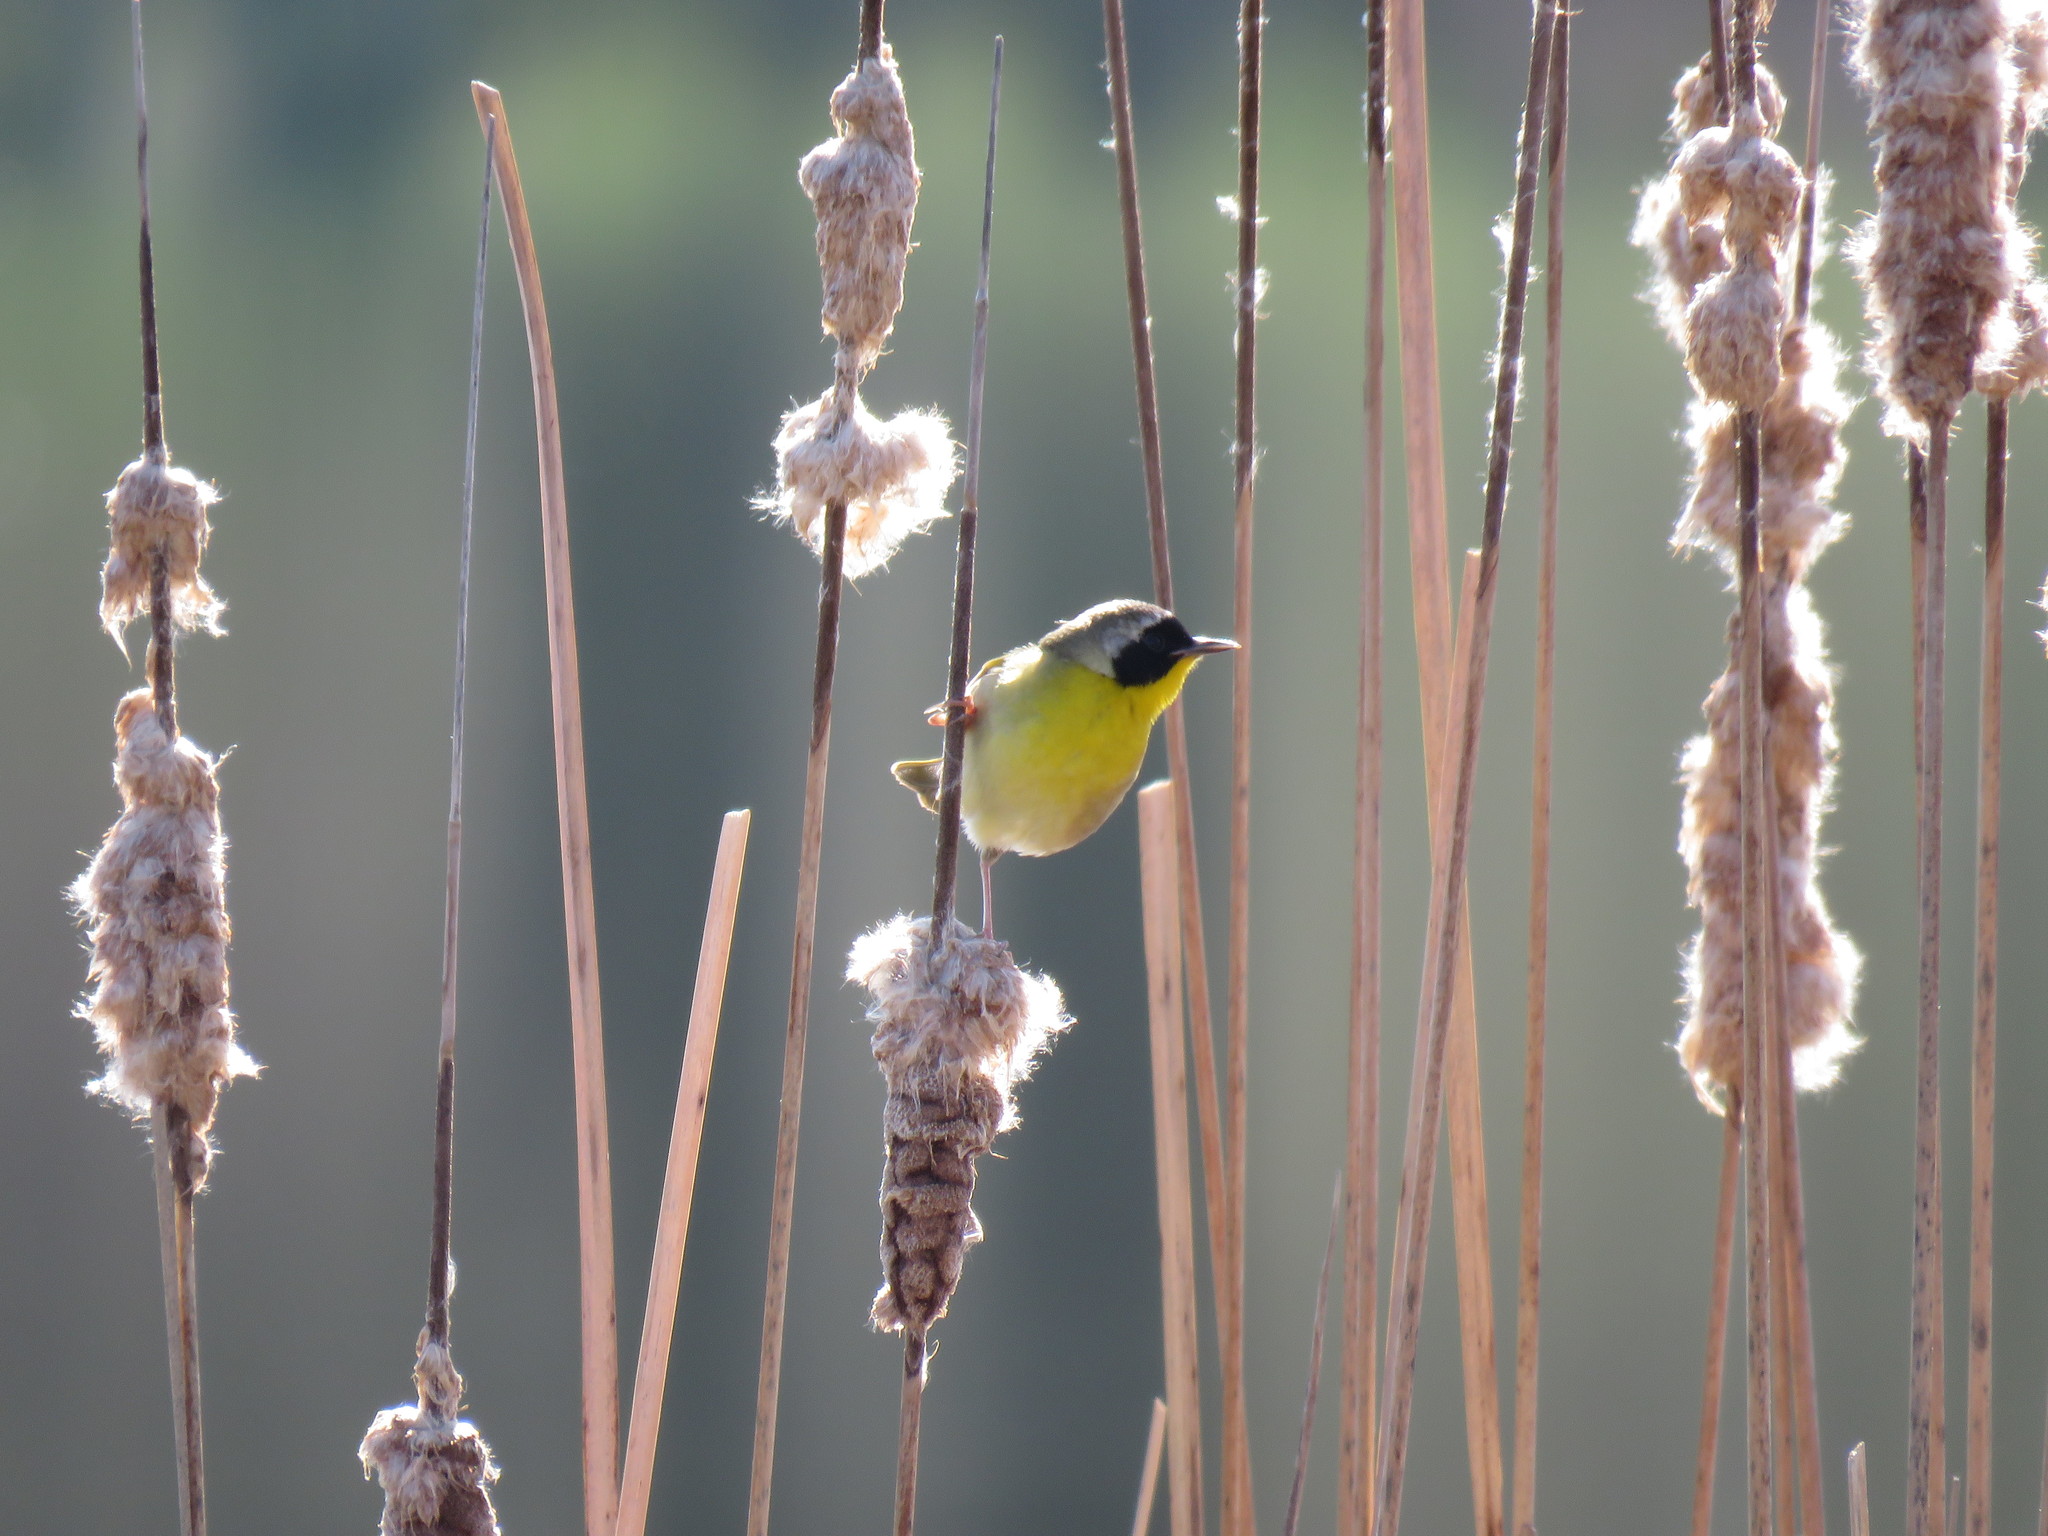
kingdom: Animalia
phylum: Chordata
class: Aves
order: Passeriformes
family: Parulidae
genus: Geothlypis
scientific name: Geothlypis trichas
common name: Common yellowthroat
